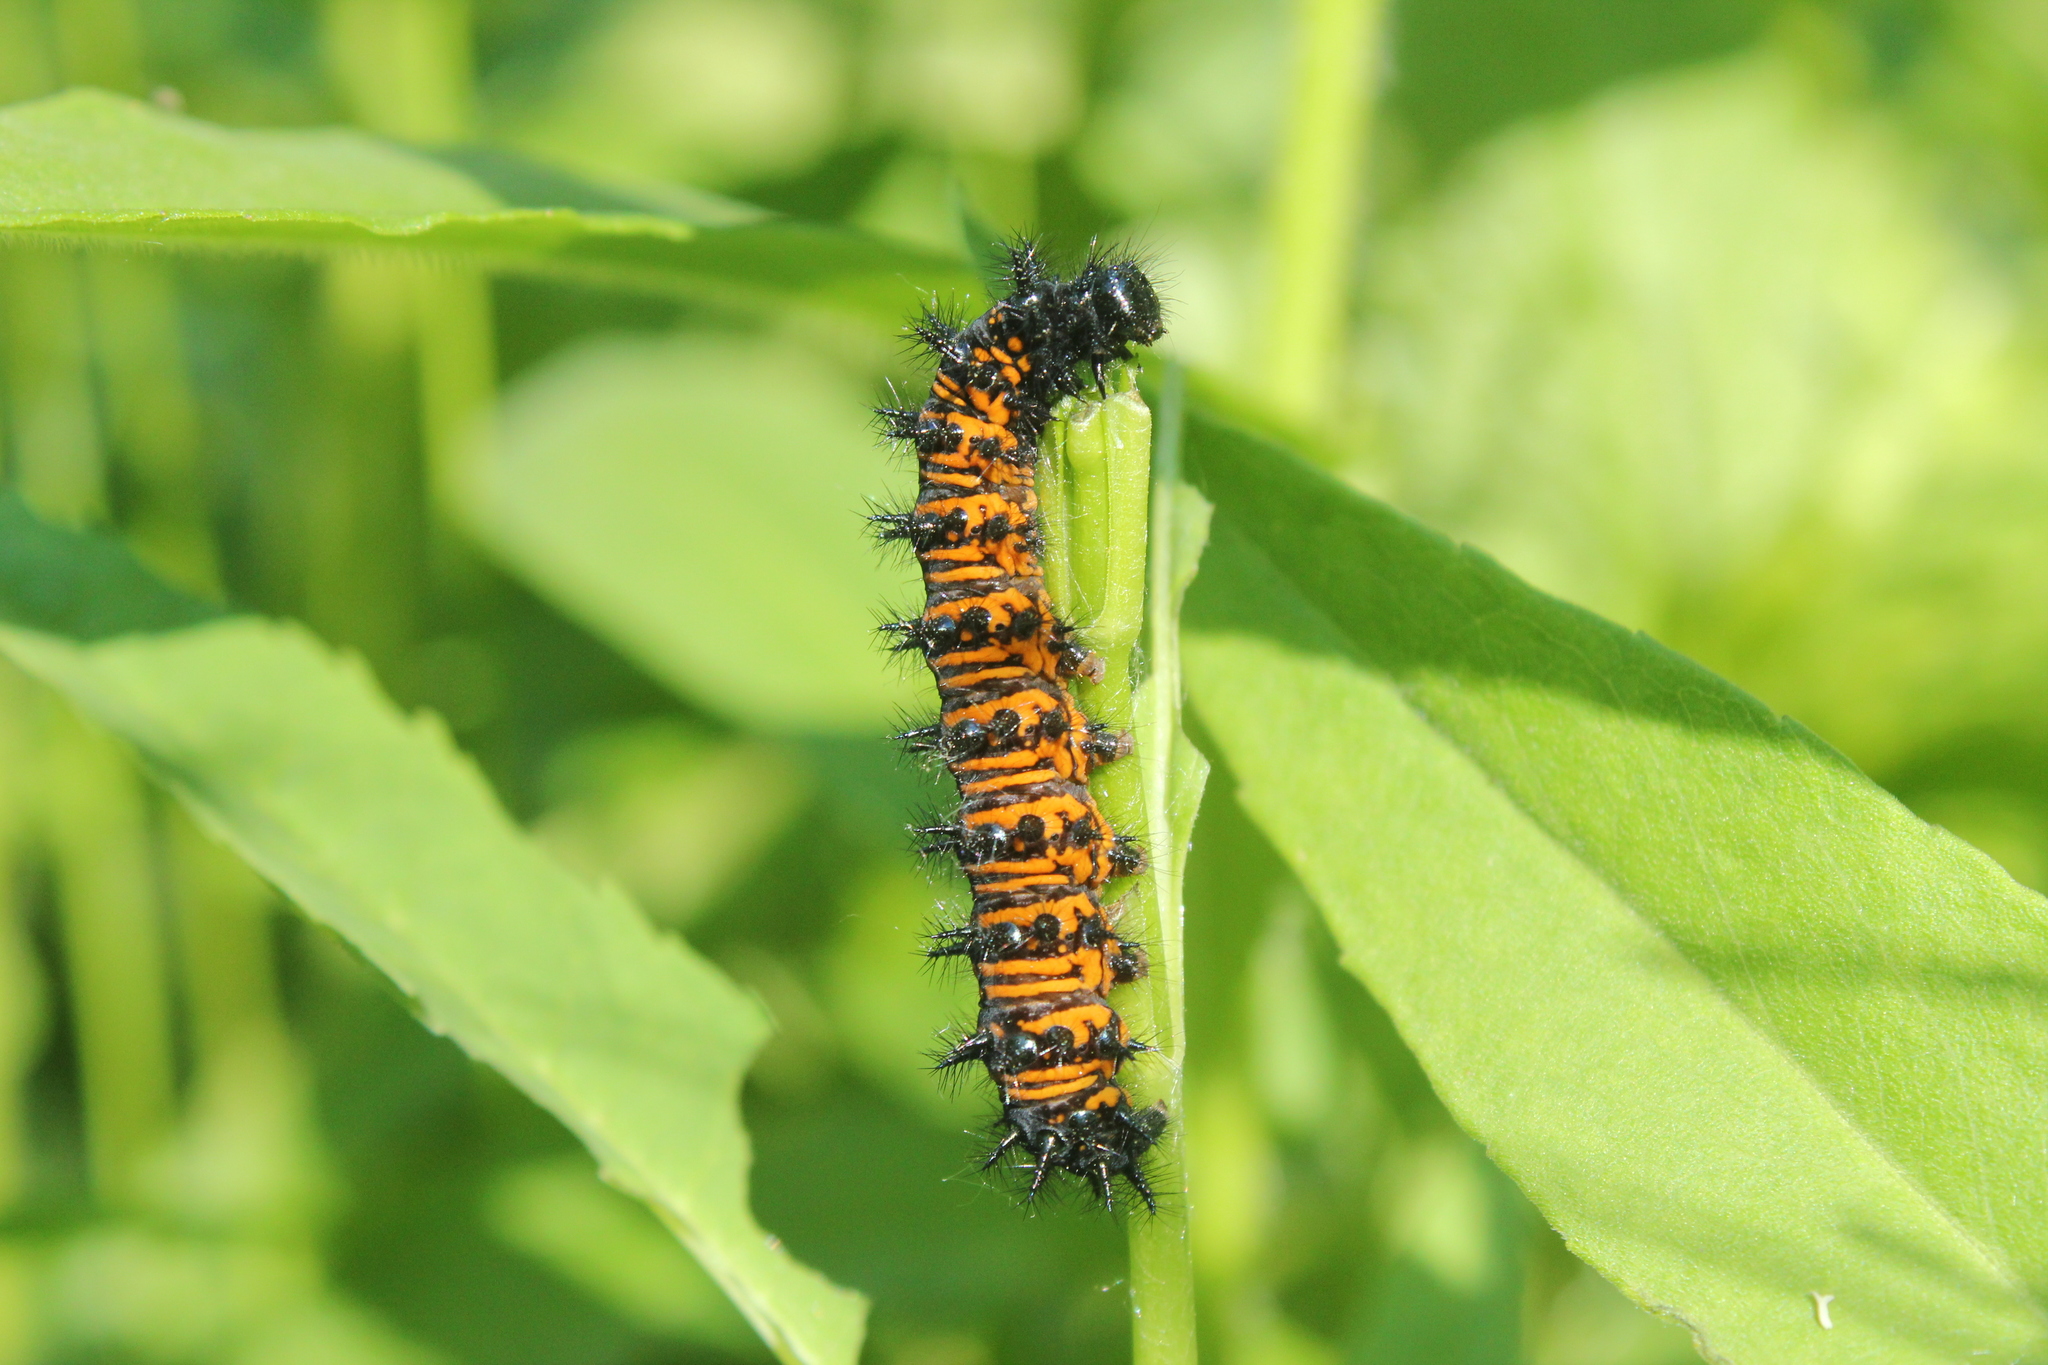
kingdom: Animalia
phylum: Arthropoda
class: Insecta
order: Lepidoptera
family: Nymphalidae
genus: Euphydryas
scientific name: Euphydryas phaeton
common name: Baltimore checkerspot
